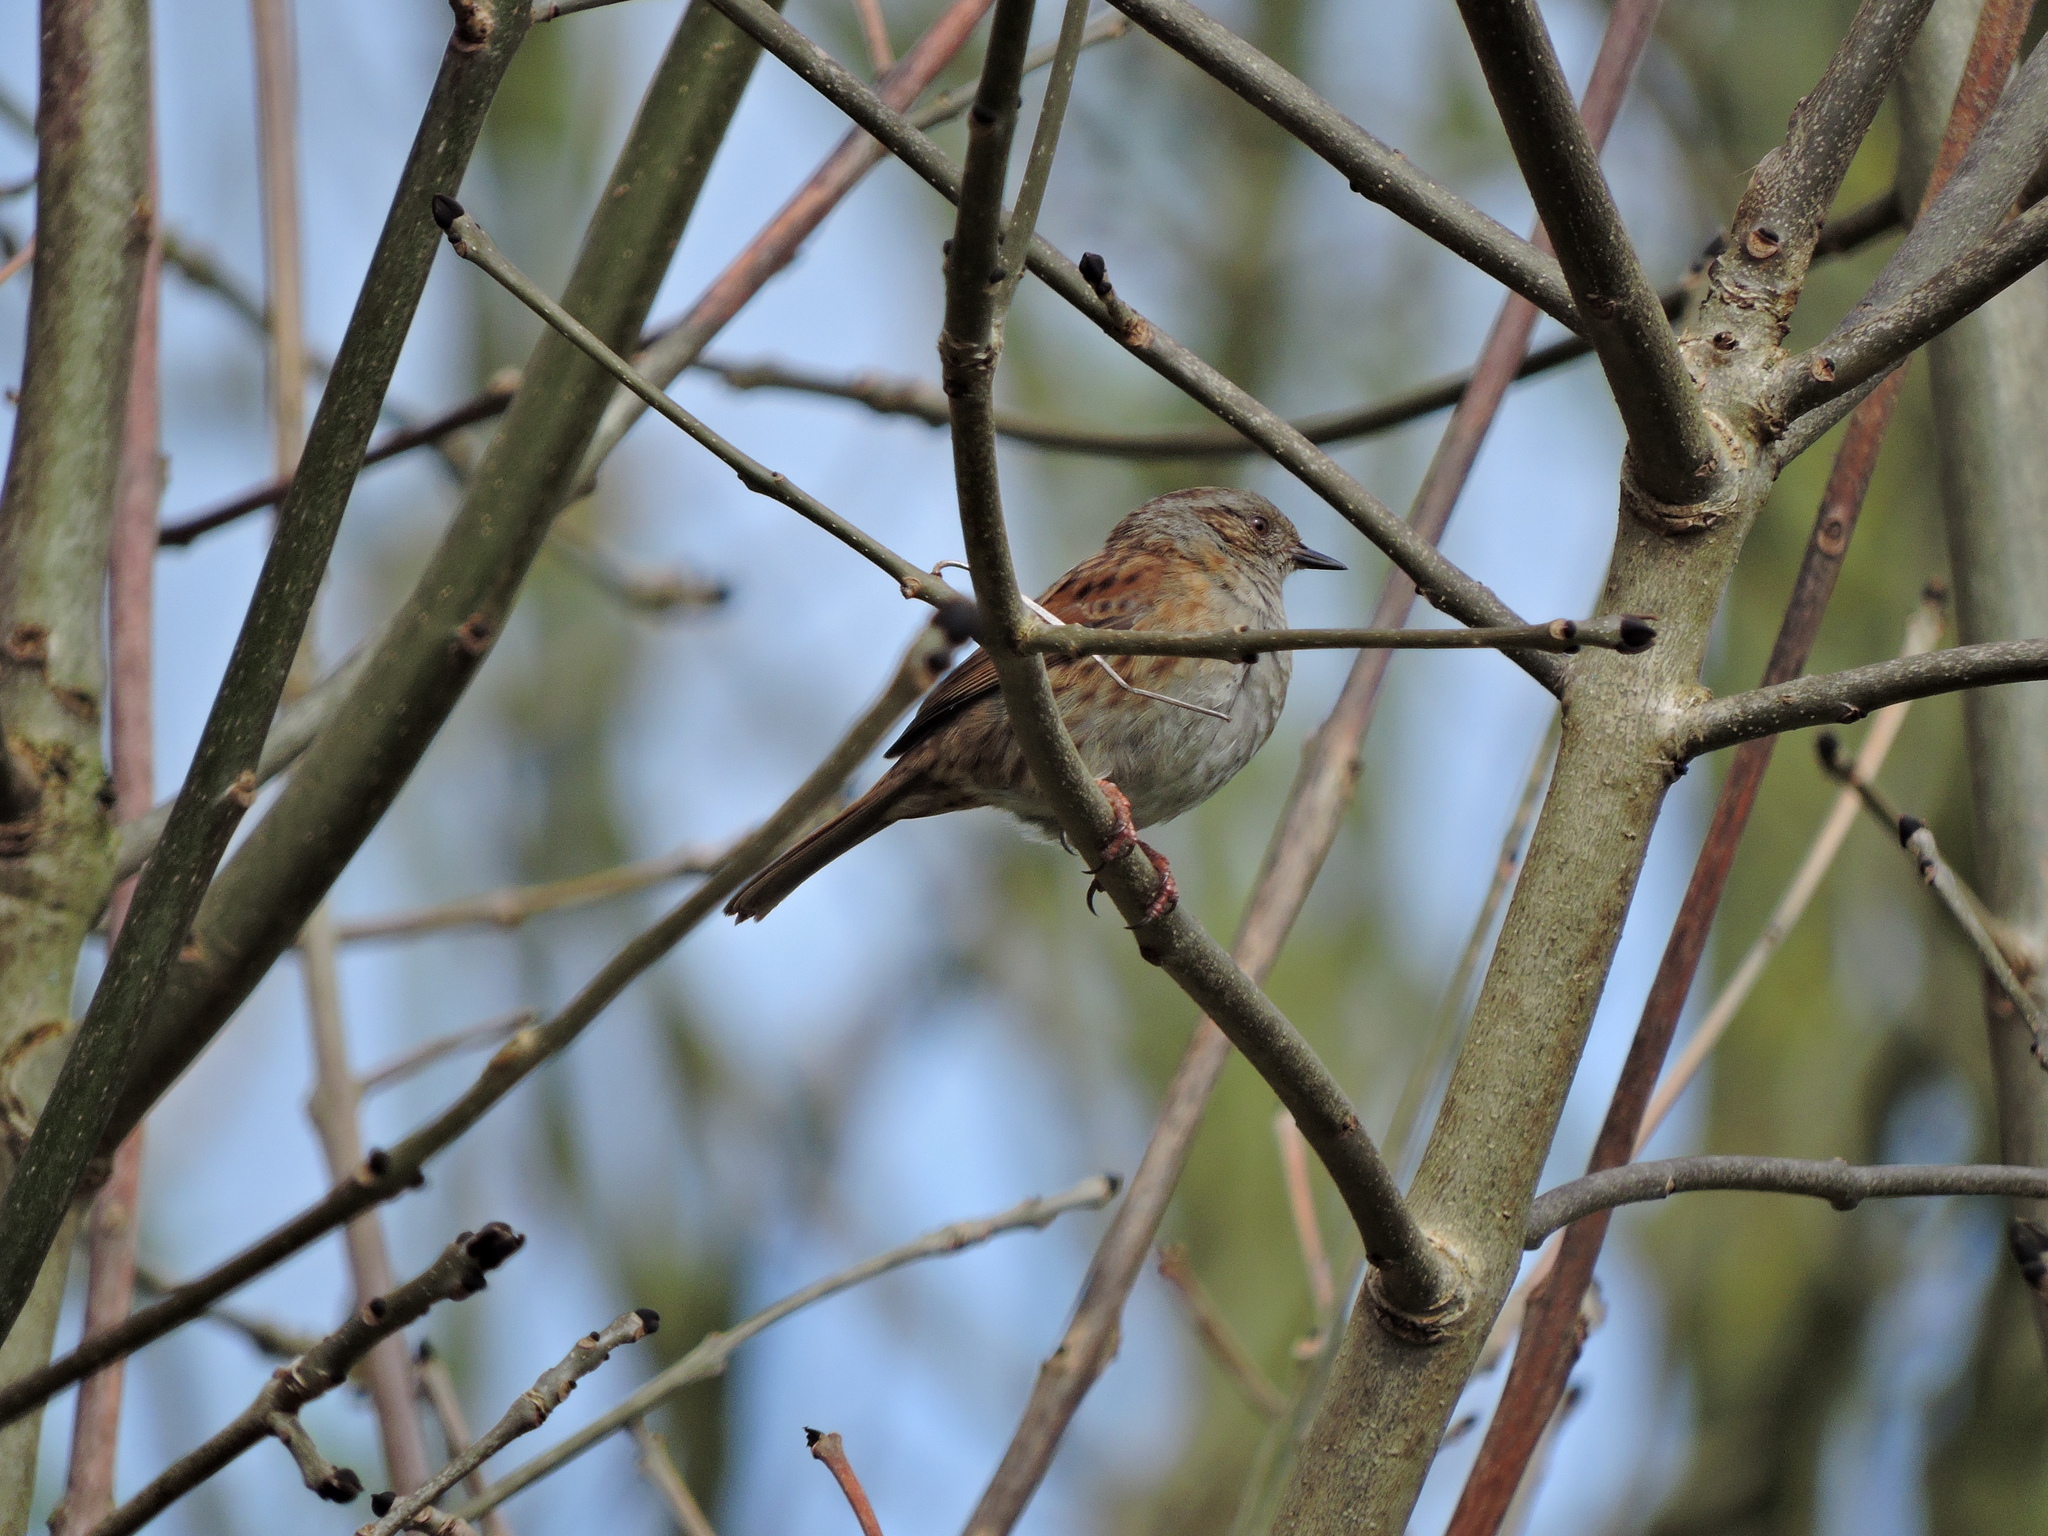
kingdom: Animalia
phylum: Chordata
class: Aves
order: Passeriformes
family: Prunellidae
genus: Prunella
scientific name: Prunella modularis
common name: Dunnock
